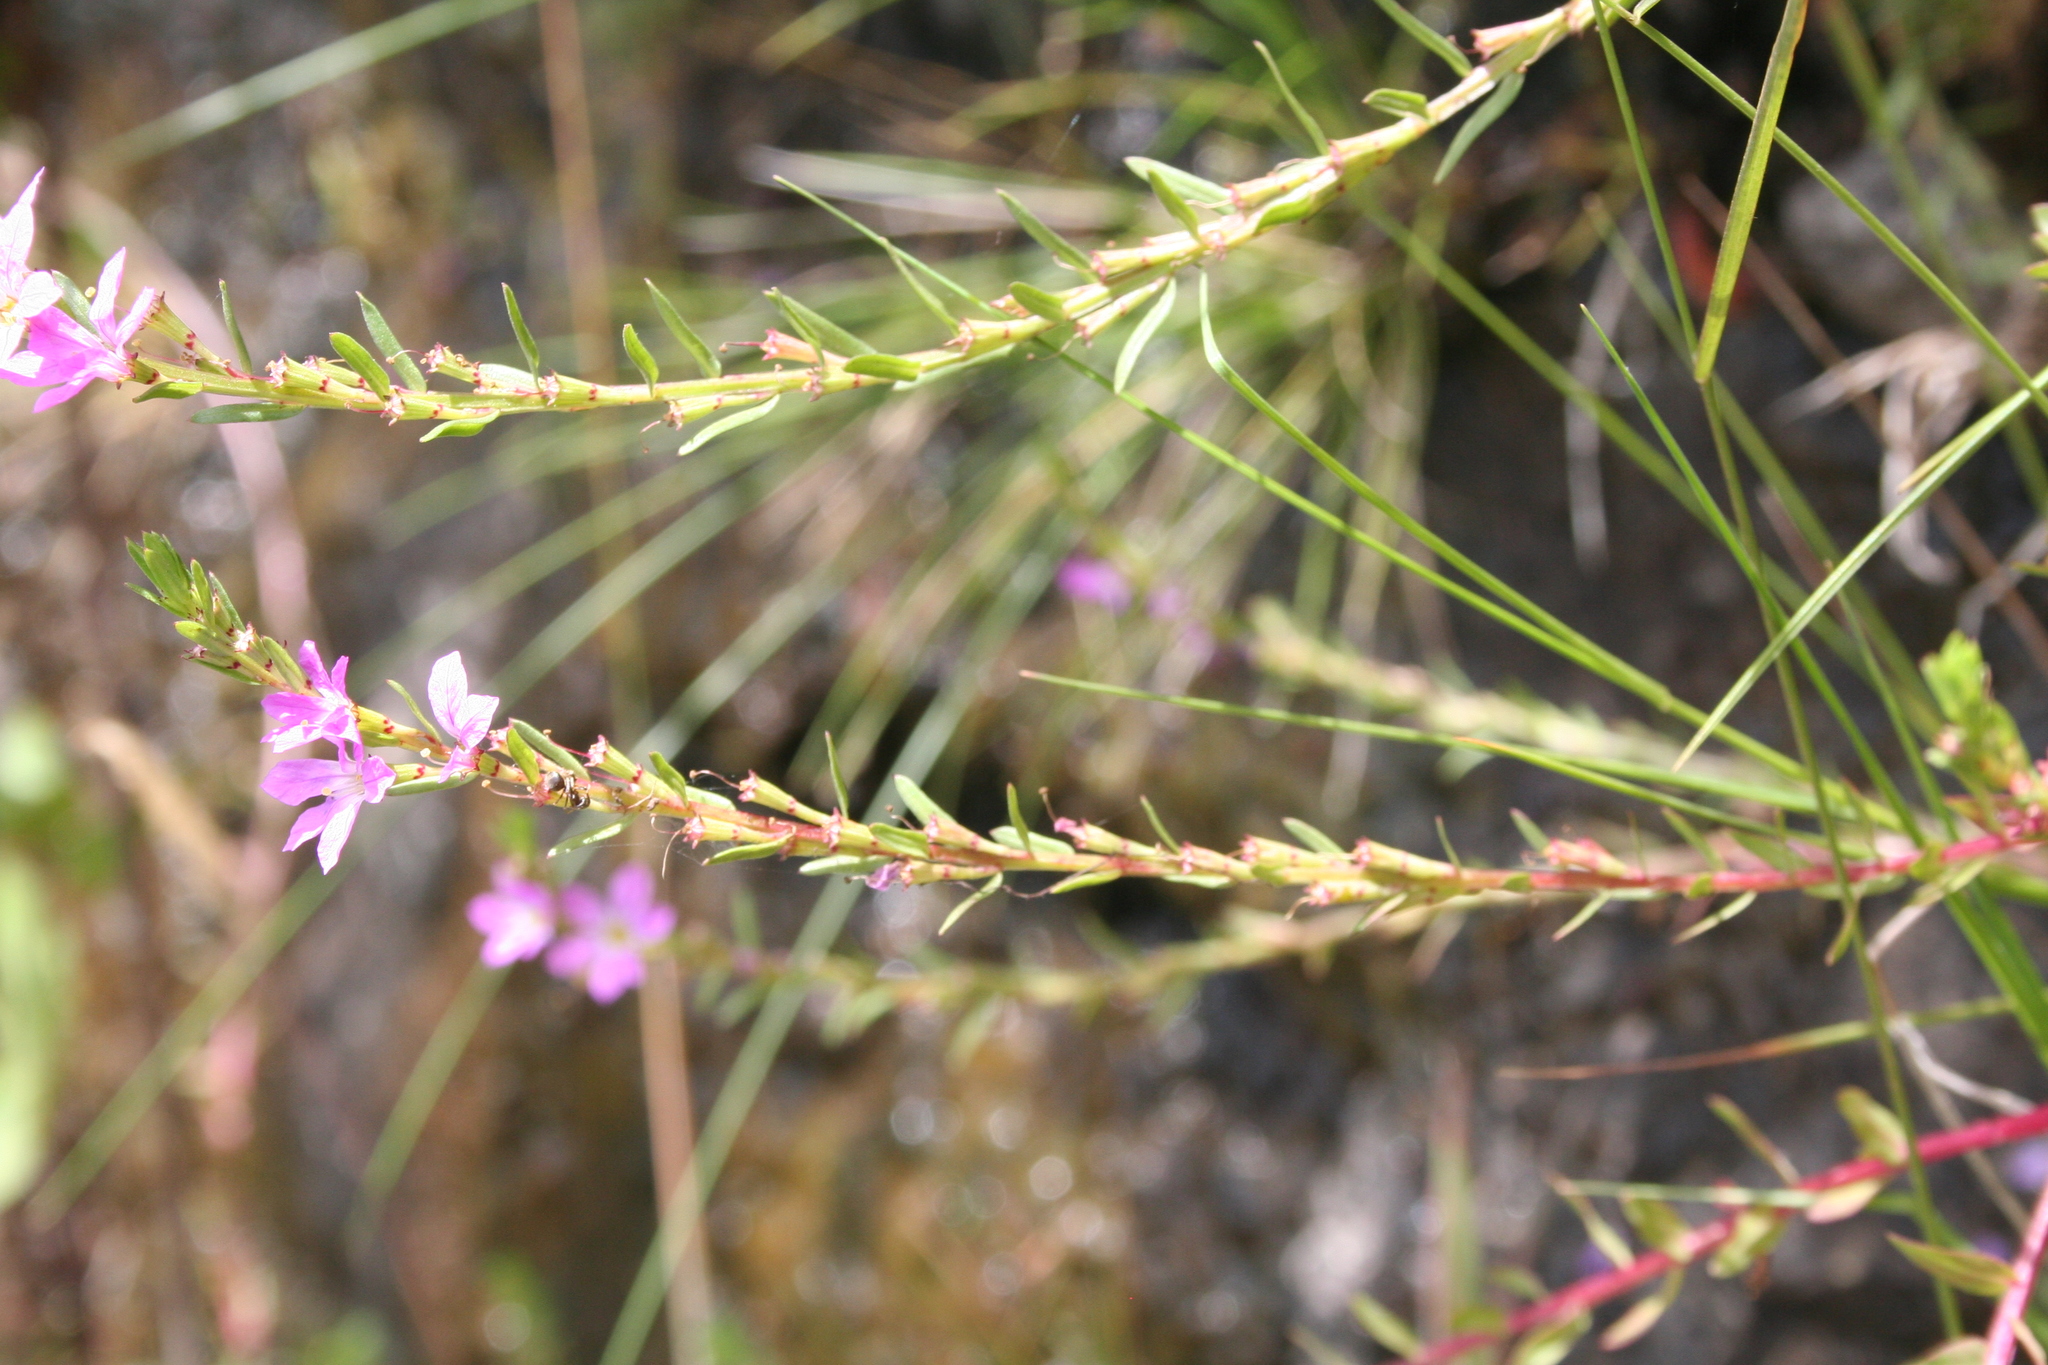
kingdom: Plantae
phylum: Tracheophyta
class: Magnoliopsida
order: Myrtales
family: Lythraceae
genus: Lythrum
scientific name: Lythrum junceum
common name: False grass-poly
